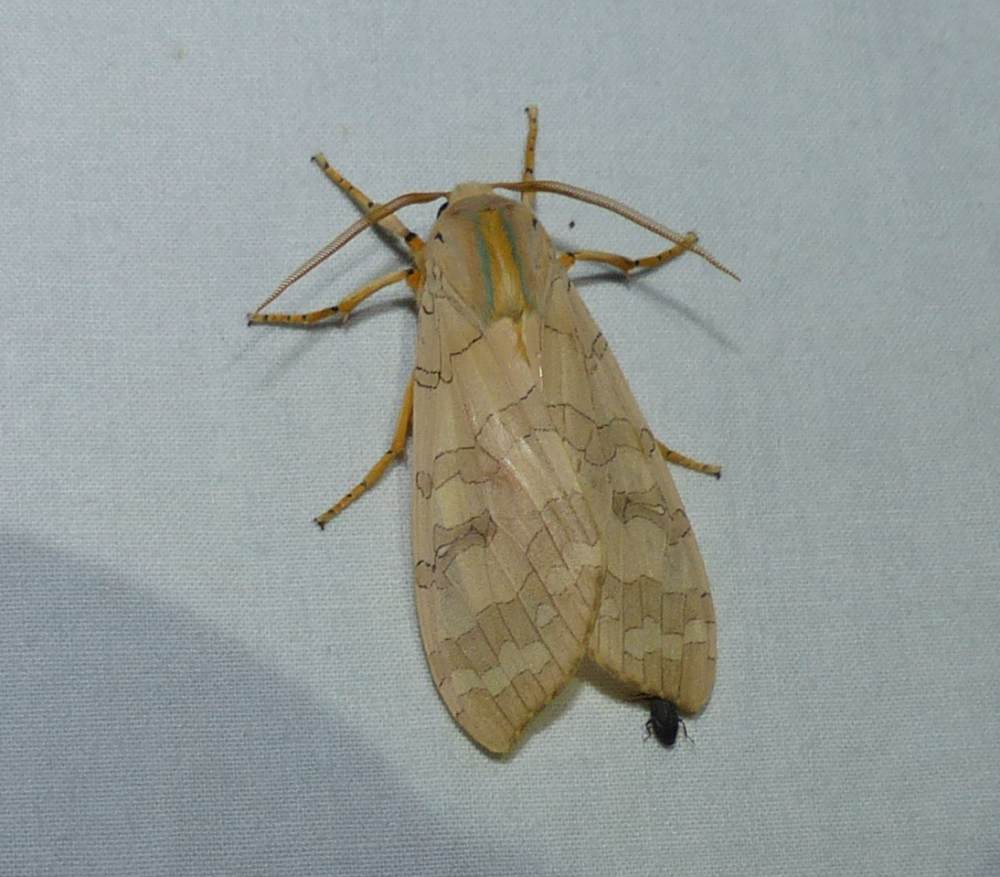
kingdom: Animalia
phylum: Arthropoda
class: Insecta
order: Lepidoptera
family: Erebidae
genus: Halysidota
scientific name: Halysidota tessellaris
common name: Banded tussock moth
